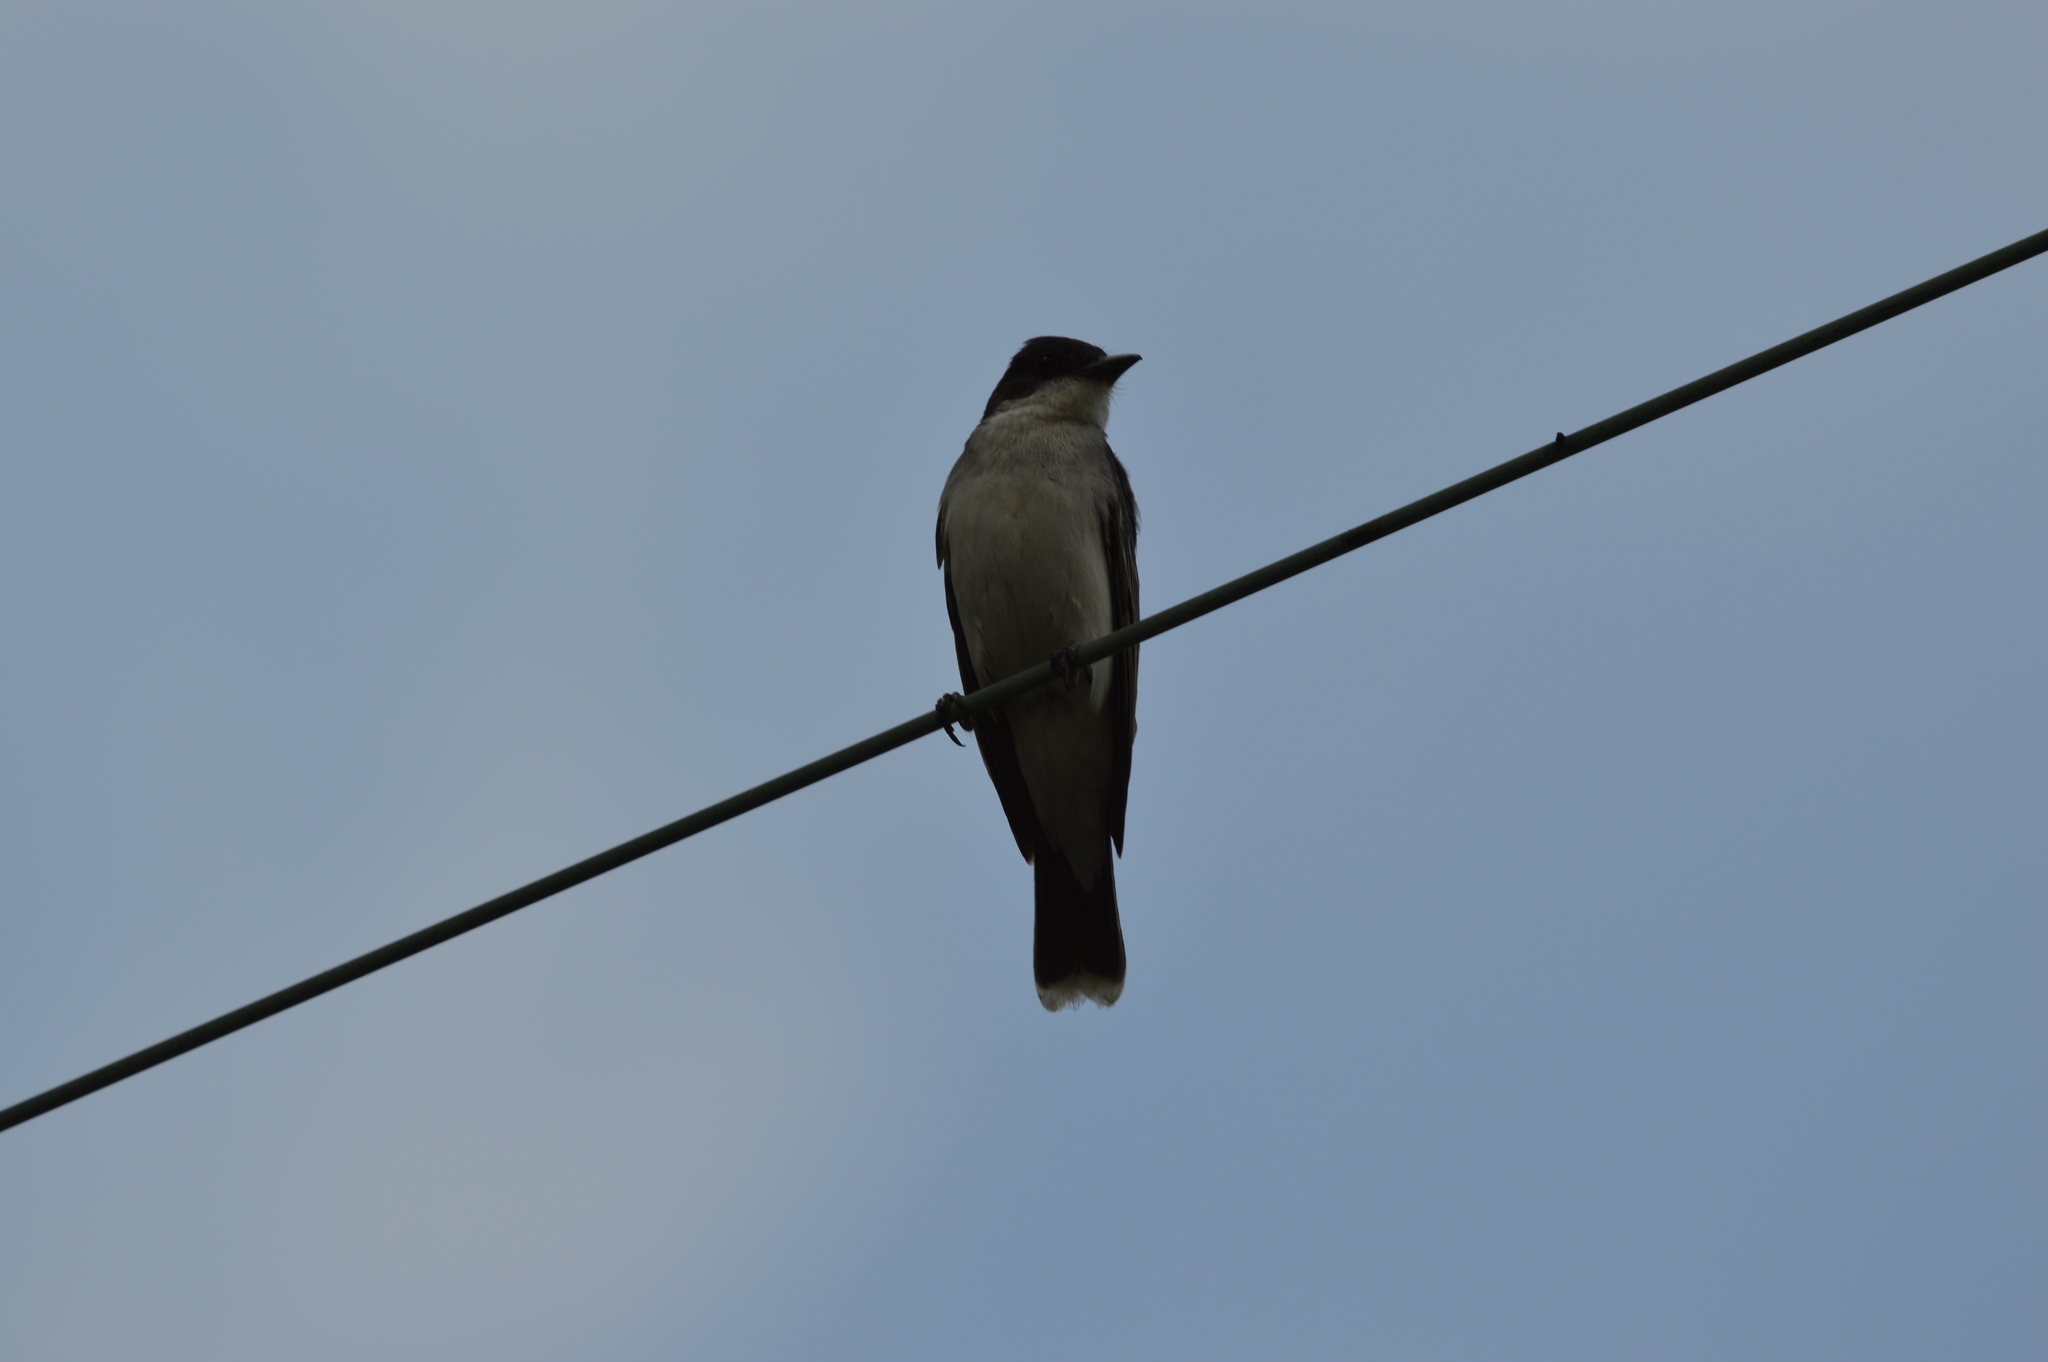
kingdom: Animalia
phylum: Chordata
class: Aves
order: Passeriformes
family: Tyrannidae
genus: Tyrannus
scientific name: Tyrannus tyrannus
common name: Eastern kingbird
